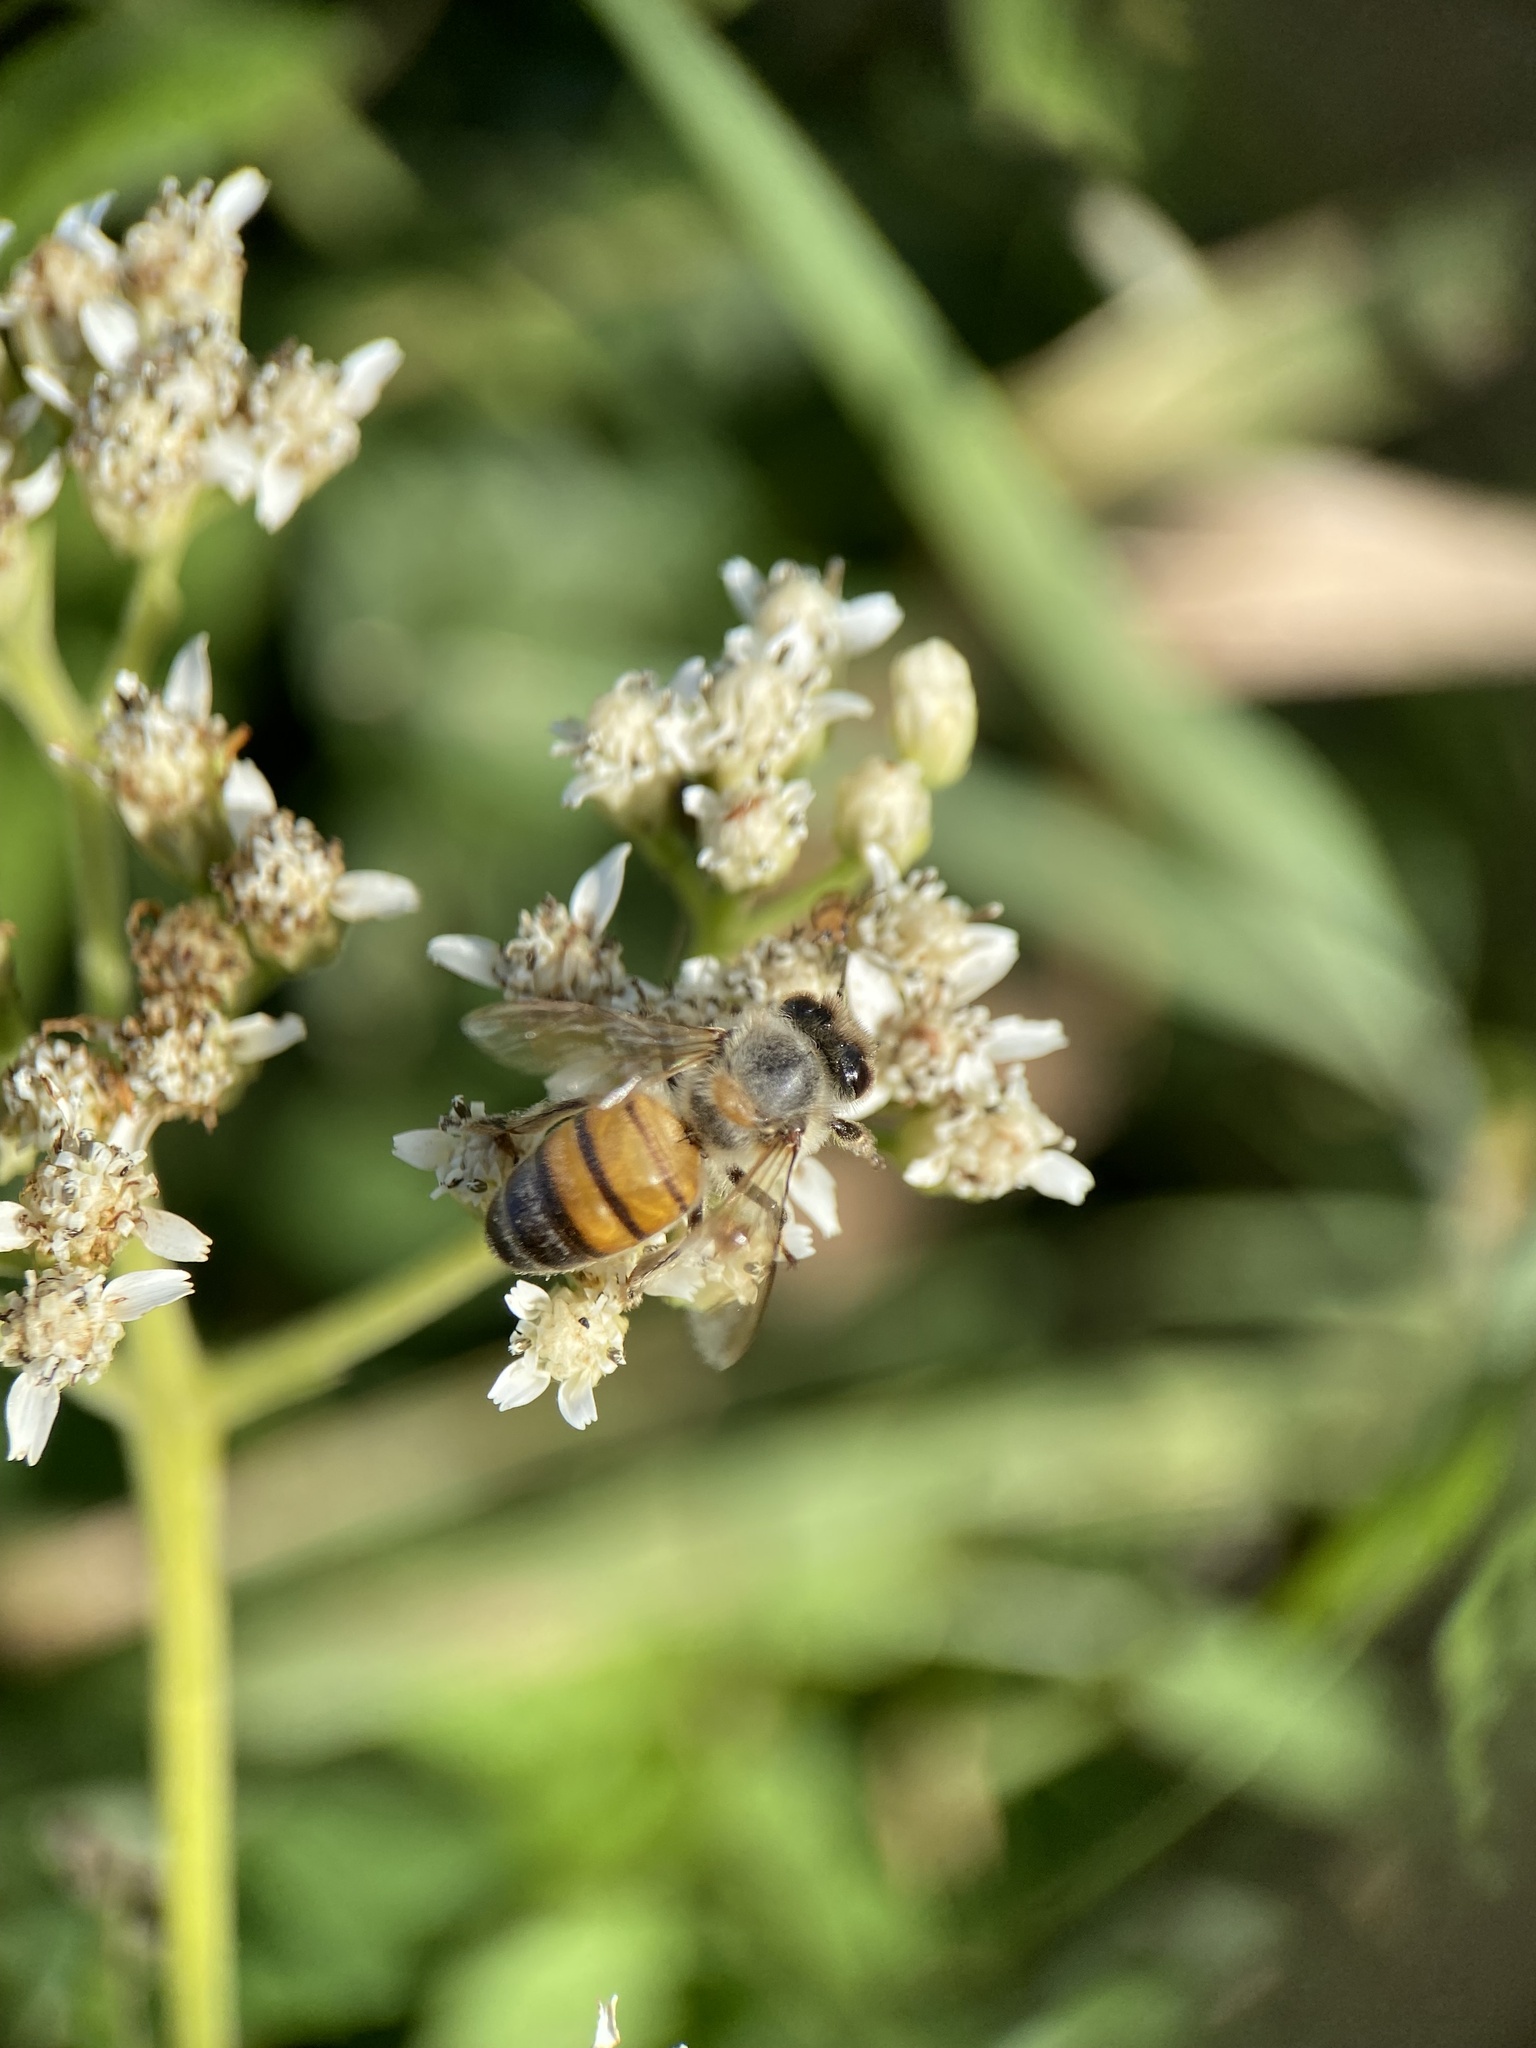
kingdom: Animalia
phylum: Arthropoda
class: Insecta
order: Hymenoptera
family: Apidae
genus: Apis
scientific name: Apis mellifera
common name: Honey bee
